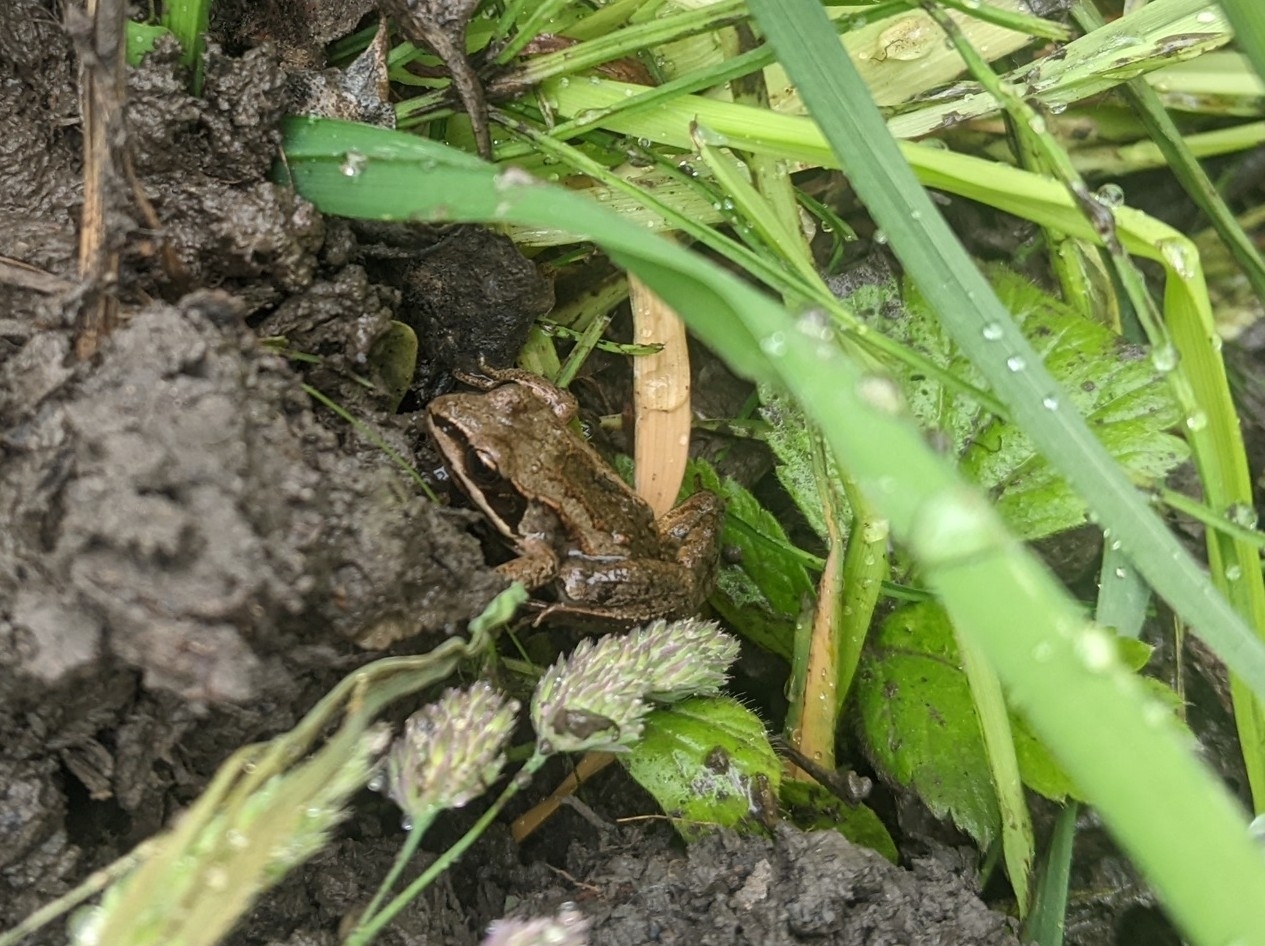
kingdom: Animalia
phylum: Chordata
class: Amphibia
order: Anura
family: Ranidae
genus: Lithobates
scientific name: Lithobates sylvaticus
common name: Wood frog
